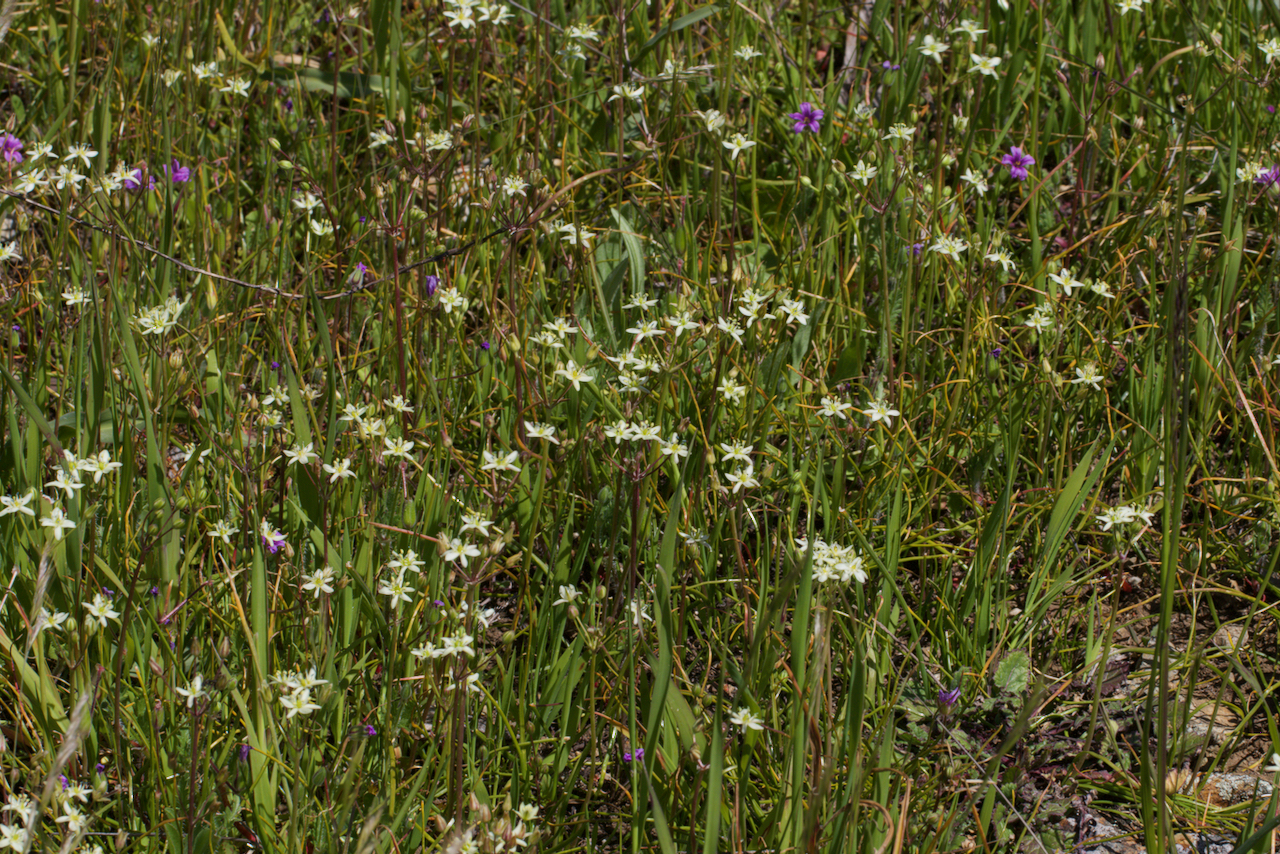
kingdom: Plantae
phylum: Tracheophyta
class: Liliopsida
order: Asparagales
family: Asparagaceae
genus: Muilla
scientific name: Muilla maritima
